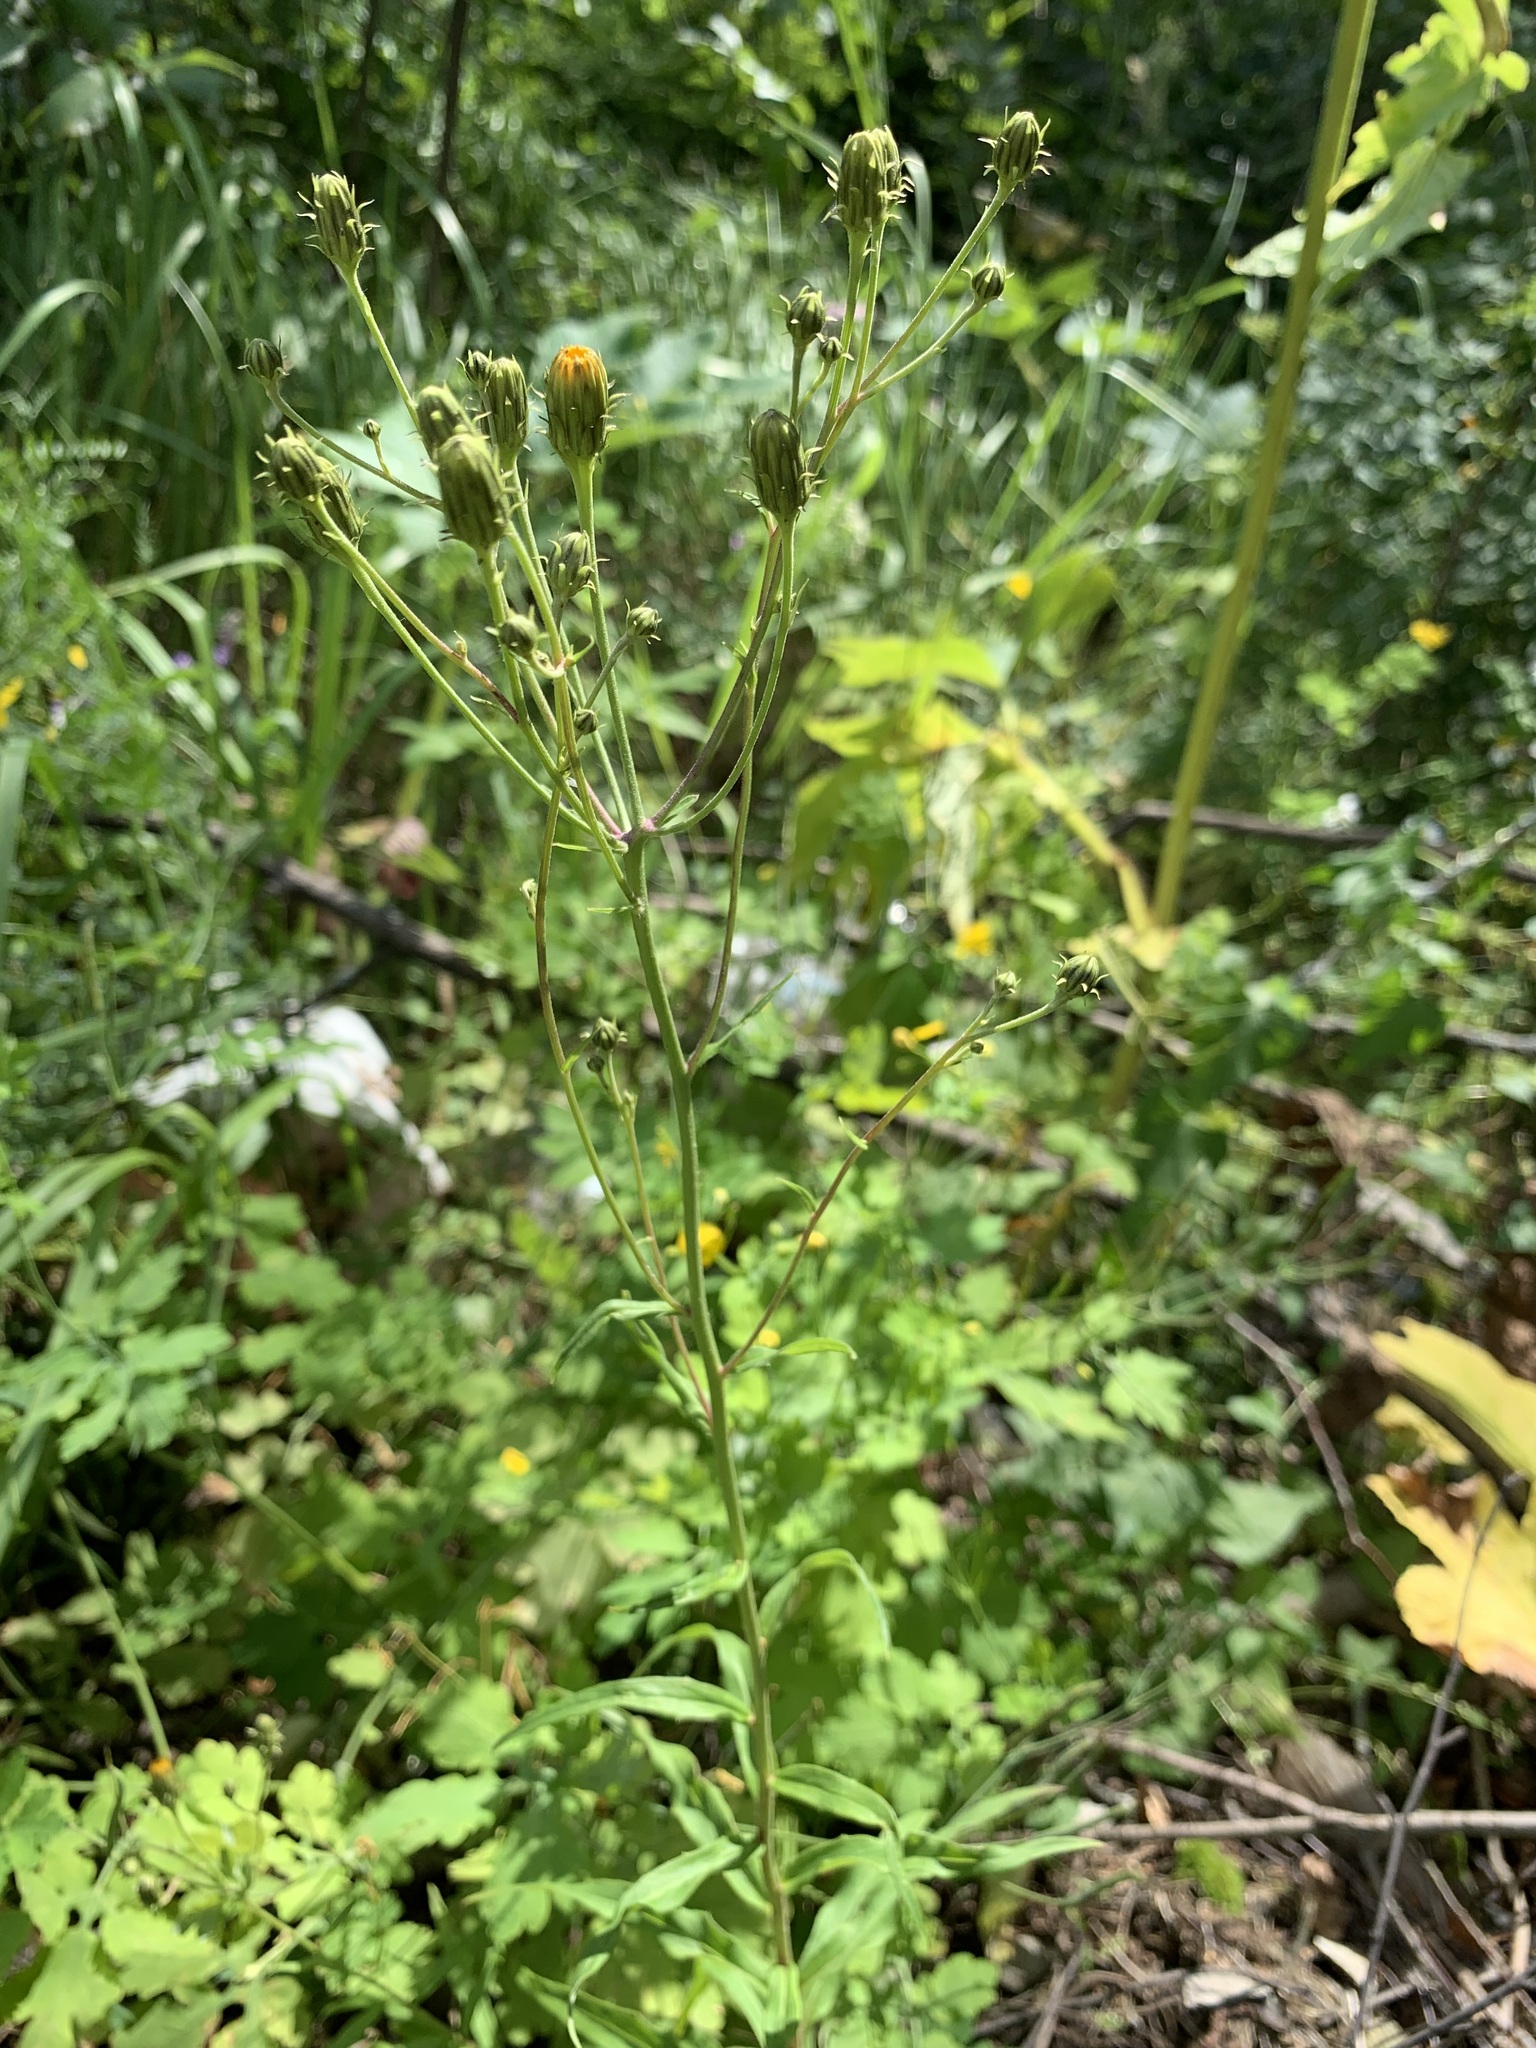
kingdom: Plantae
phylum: Tracheophyta
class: Magnoliopsida
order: Asterales
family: Asteraceae
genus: Hieracium
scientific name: Hieracium umbellatum
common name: Northern hawkweed
